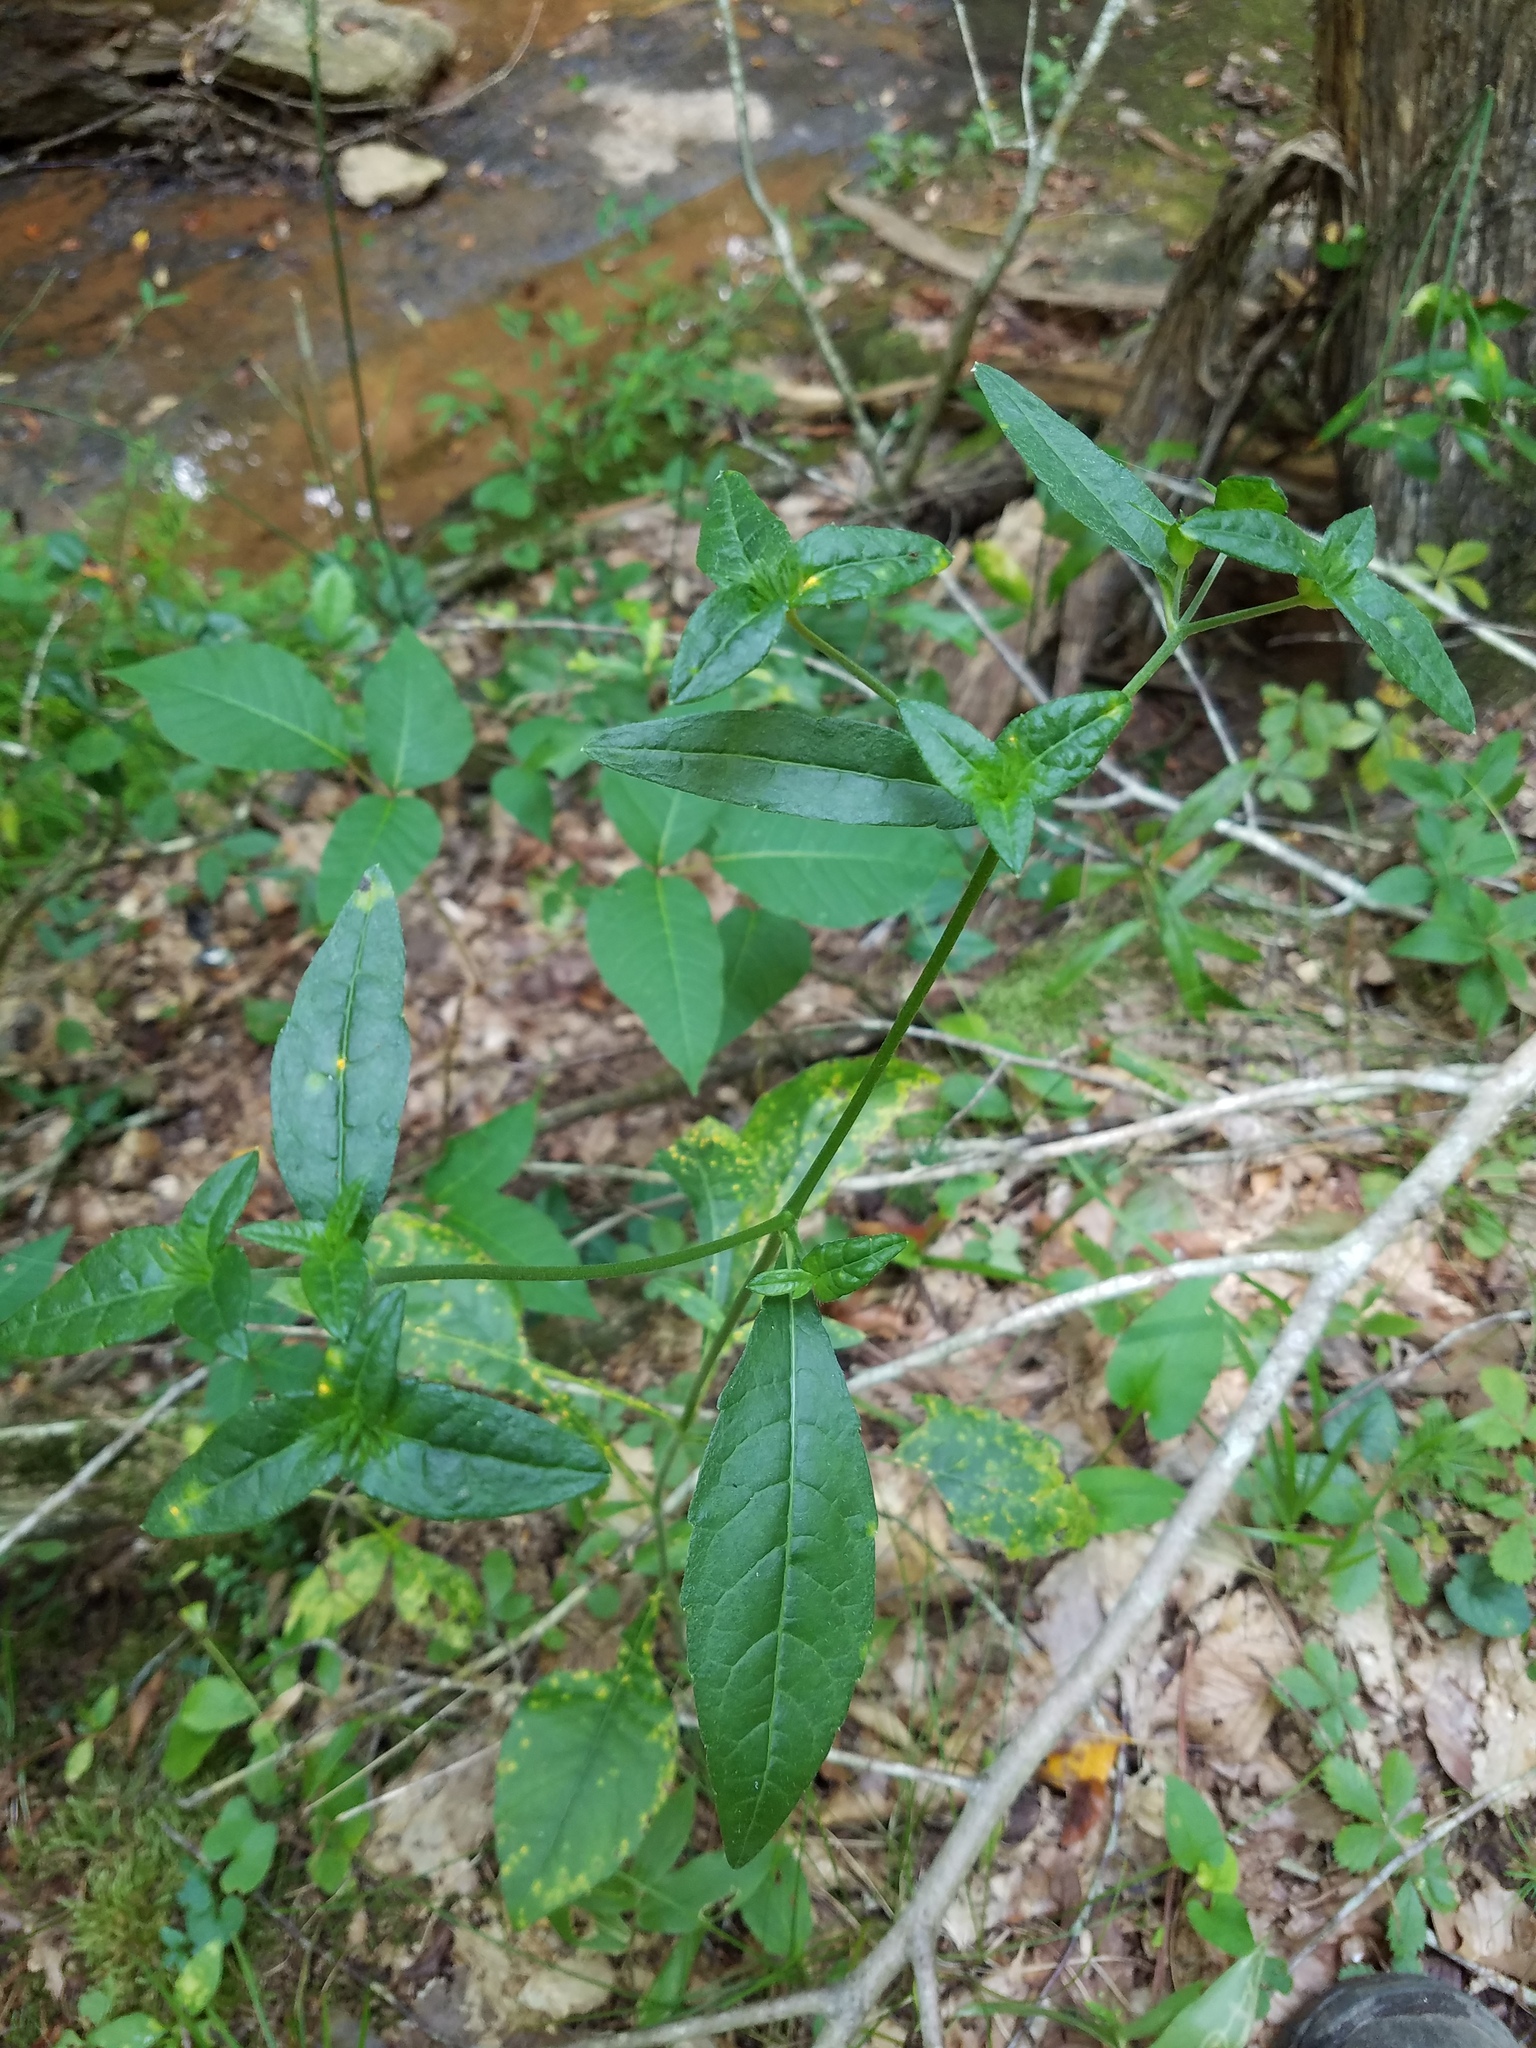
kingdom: Plantae
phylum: Tracheophyta
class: Magnoliopsida
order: Asterales
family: Asteraceae
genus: Elephantopus
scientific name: Elephantopus carolinianus
